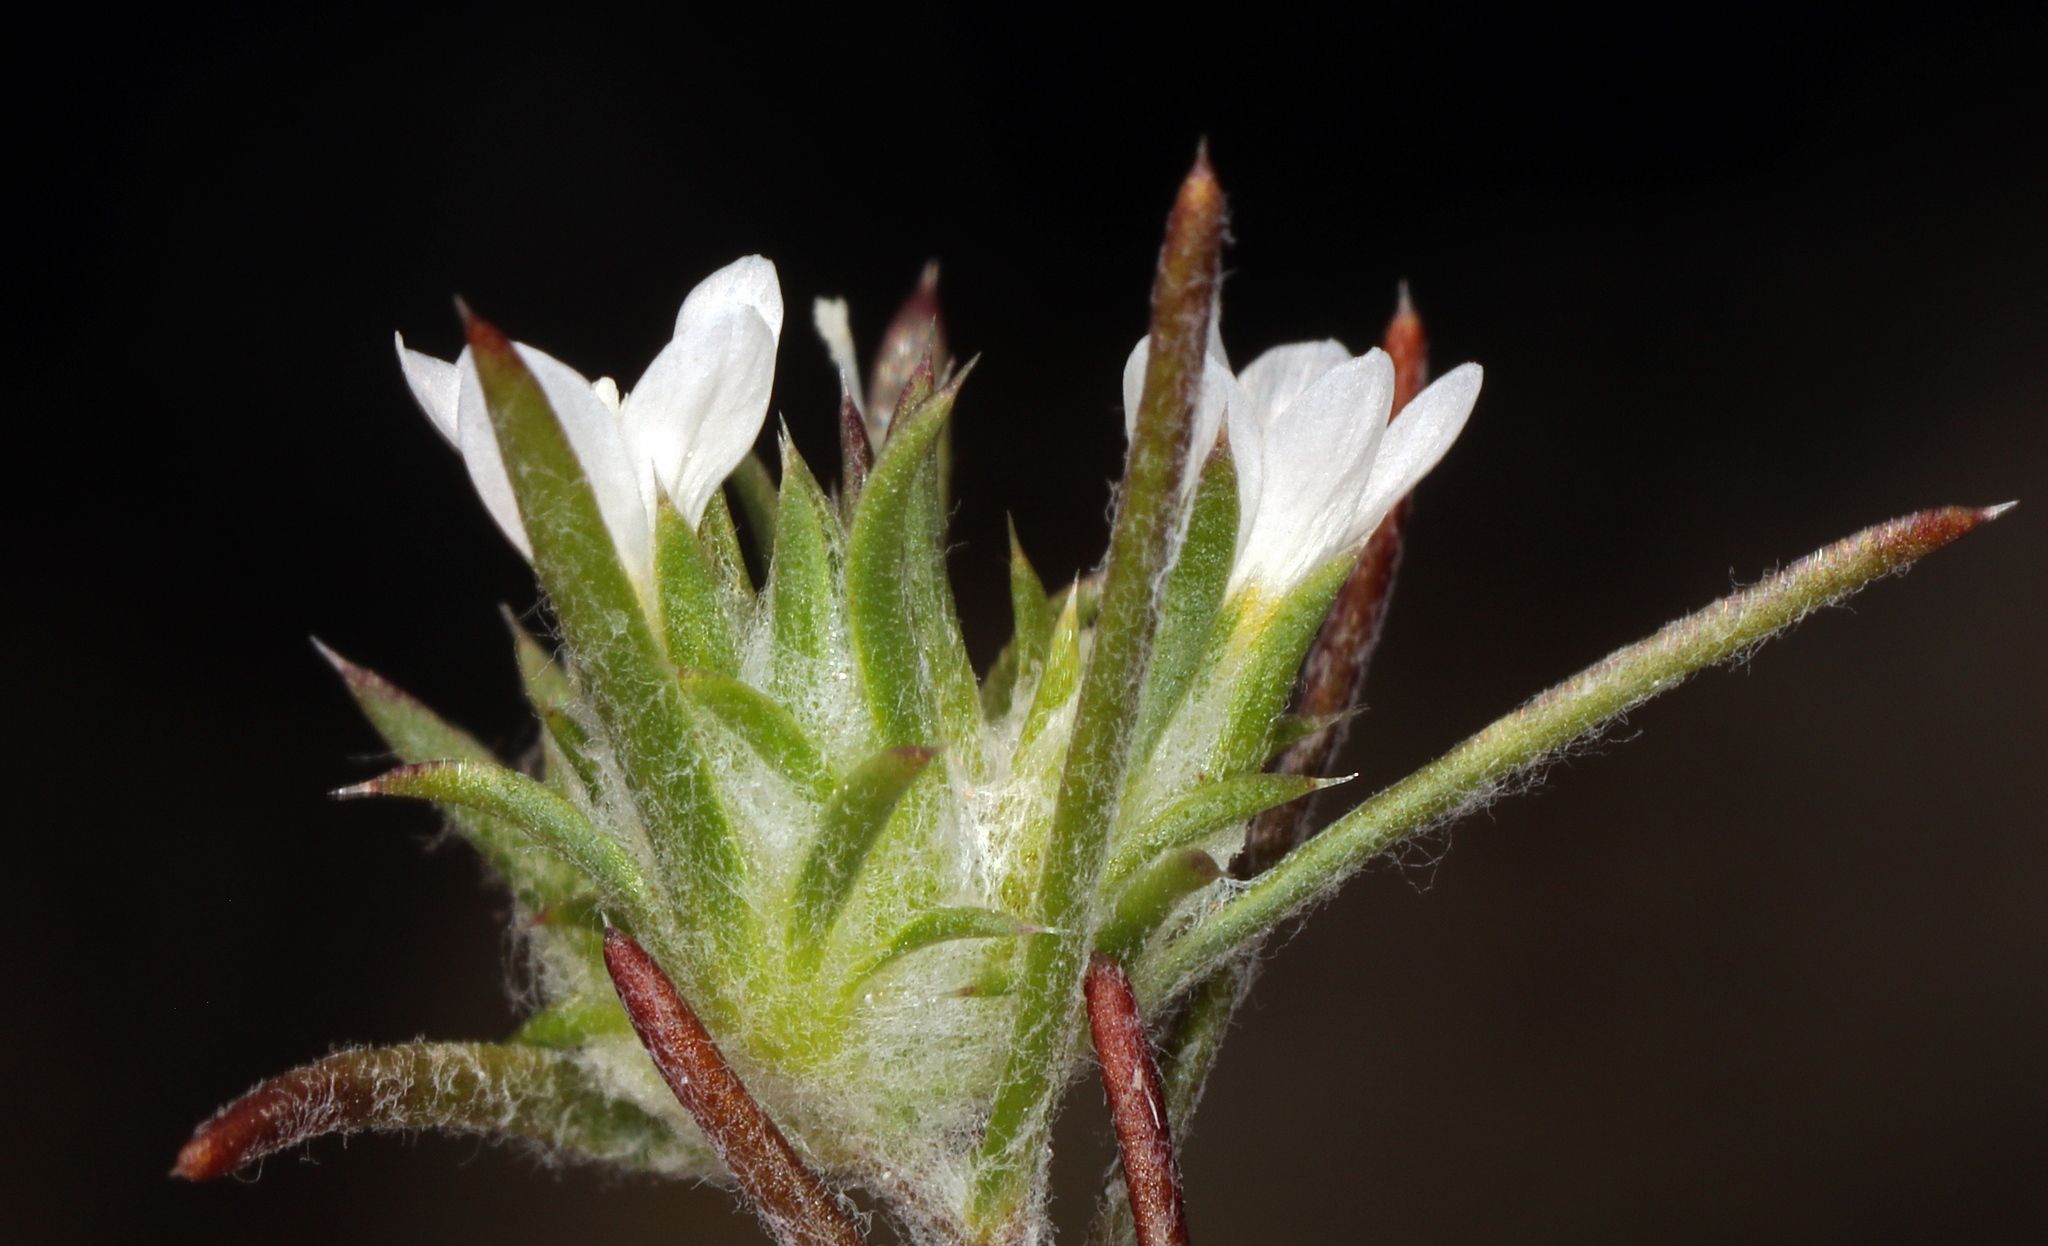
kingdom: Plantae
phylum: Tracheophyta
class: Magnoliopsida
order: Ericales
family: Polemoniaceae
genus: Eriastrum
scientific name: Eriastrum diffusum
